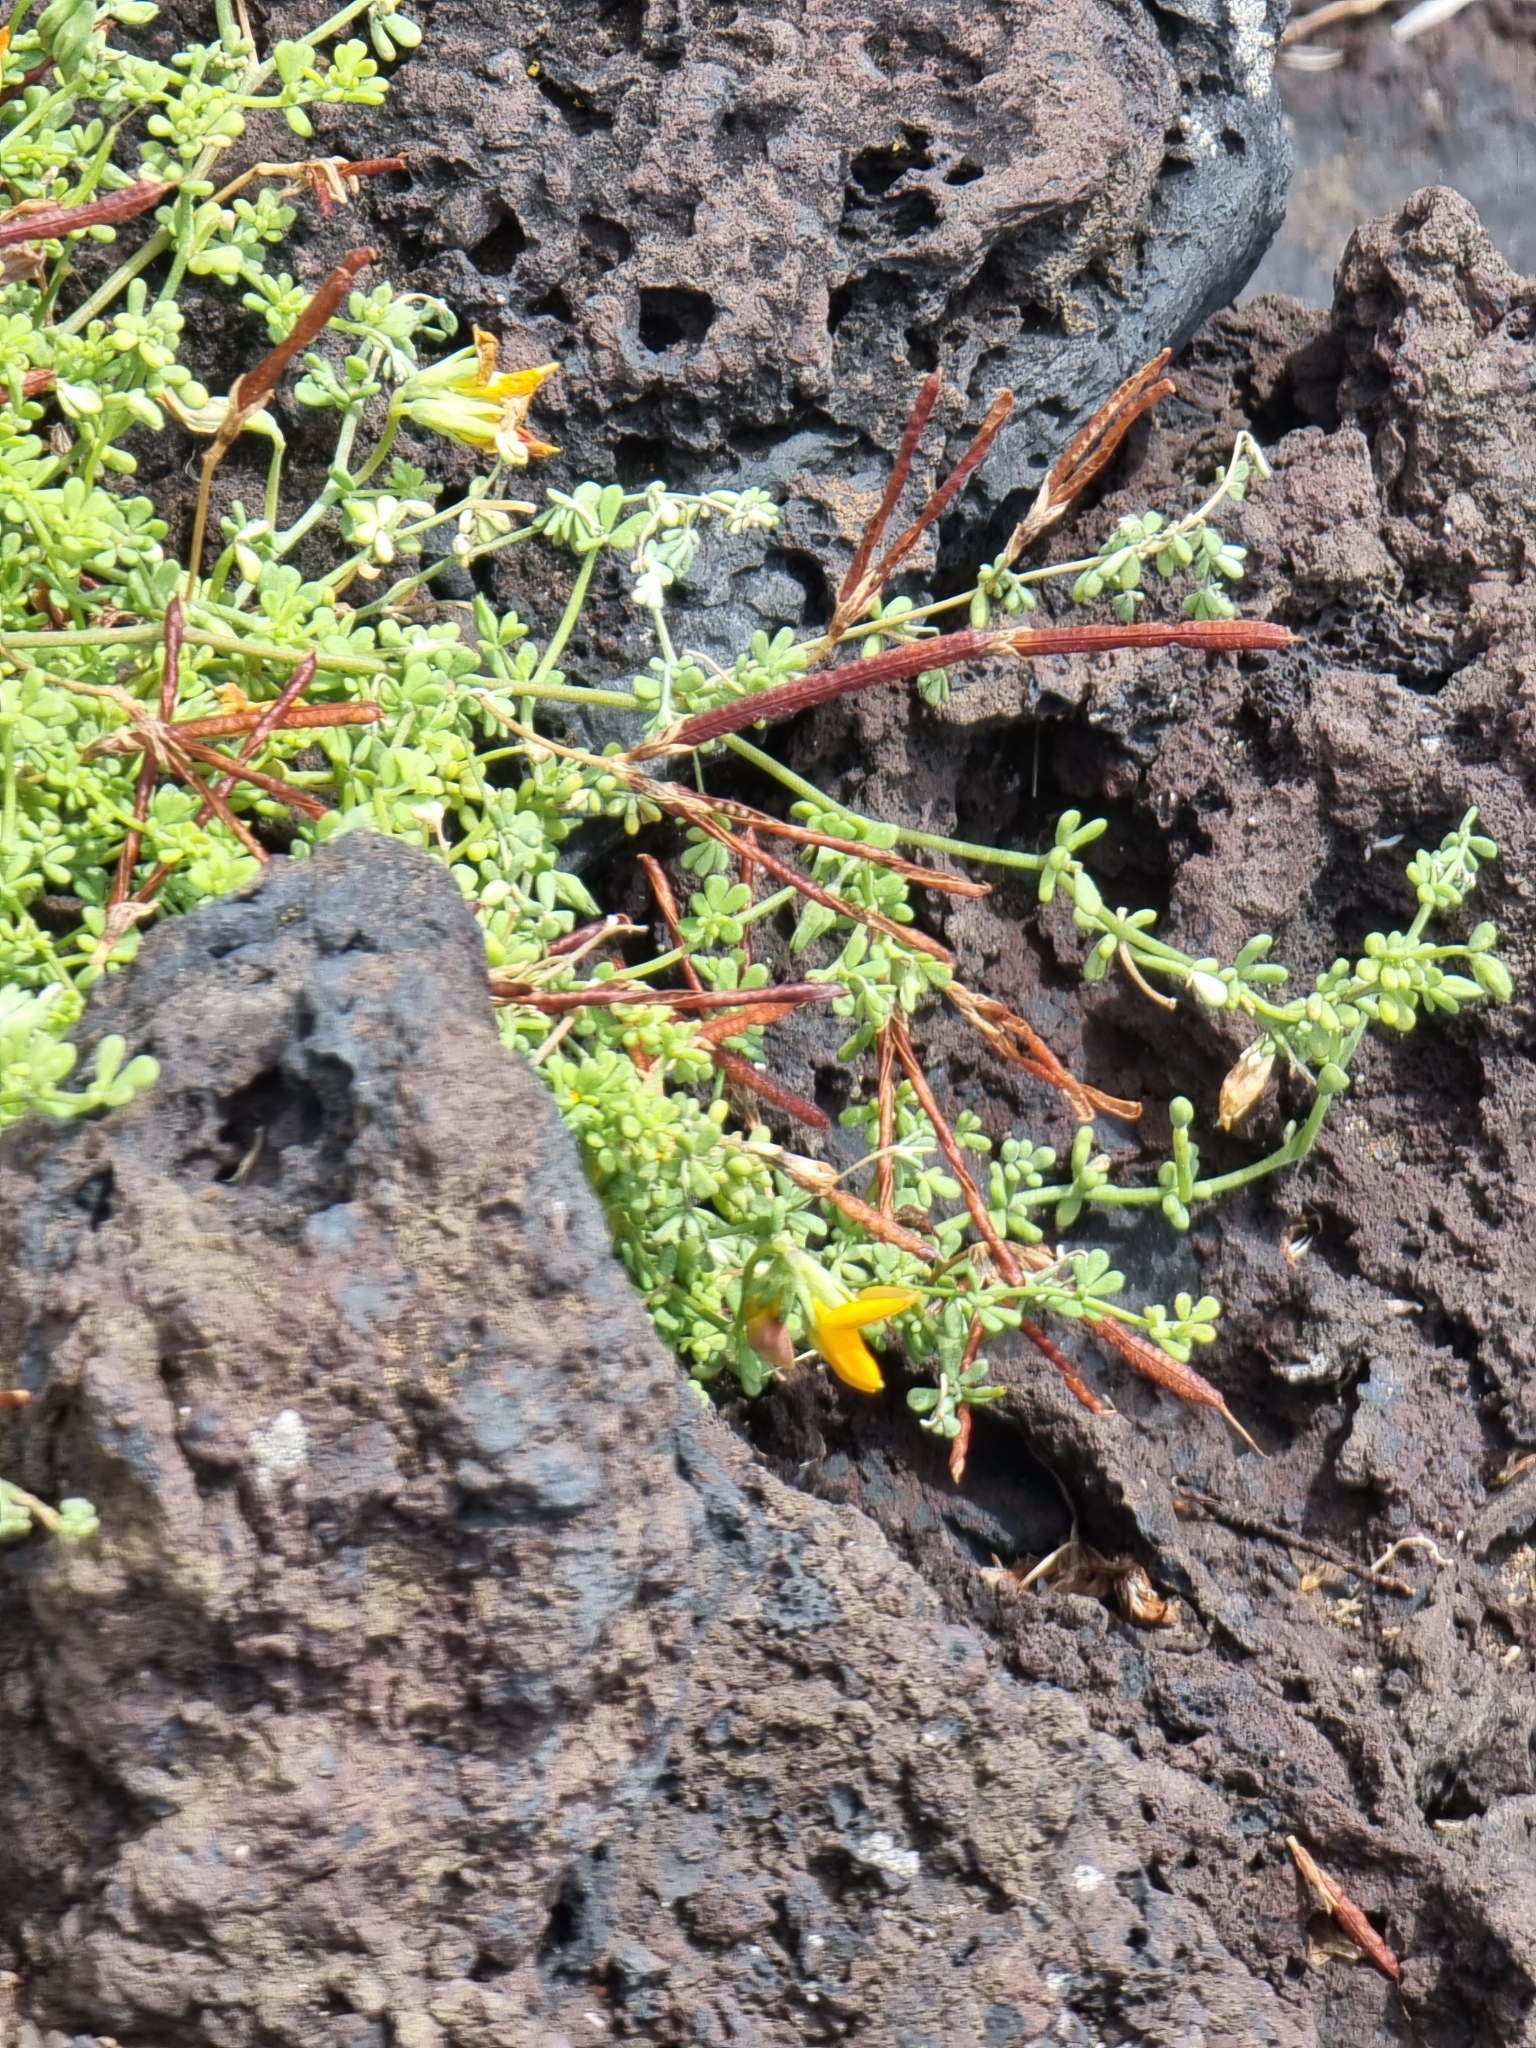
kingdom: Plantae
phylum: Tracheophyta
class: Magnoliopsida
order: Fabales
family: Fabaceae
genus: Lotus
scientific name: Lotus glaucus
